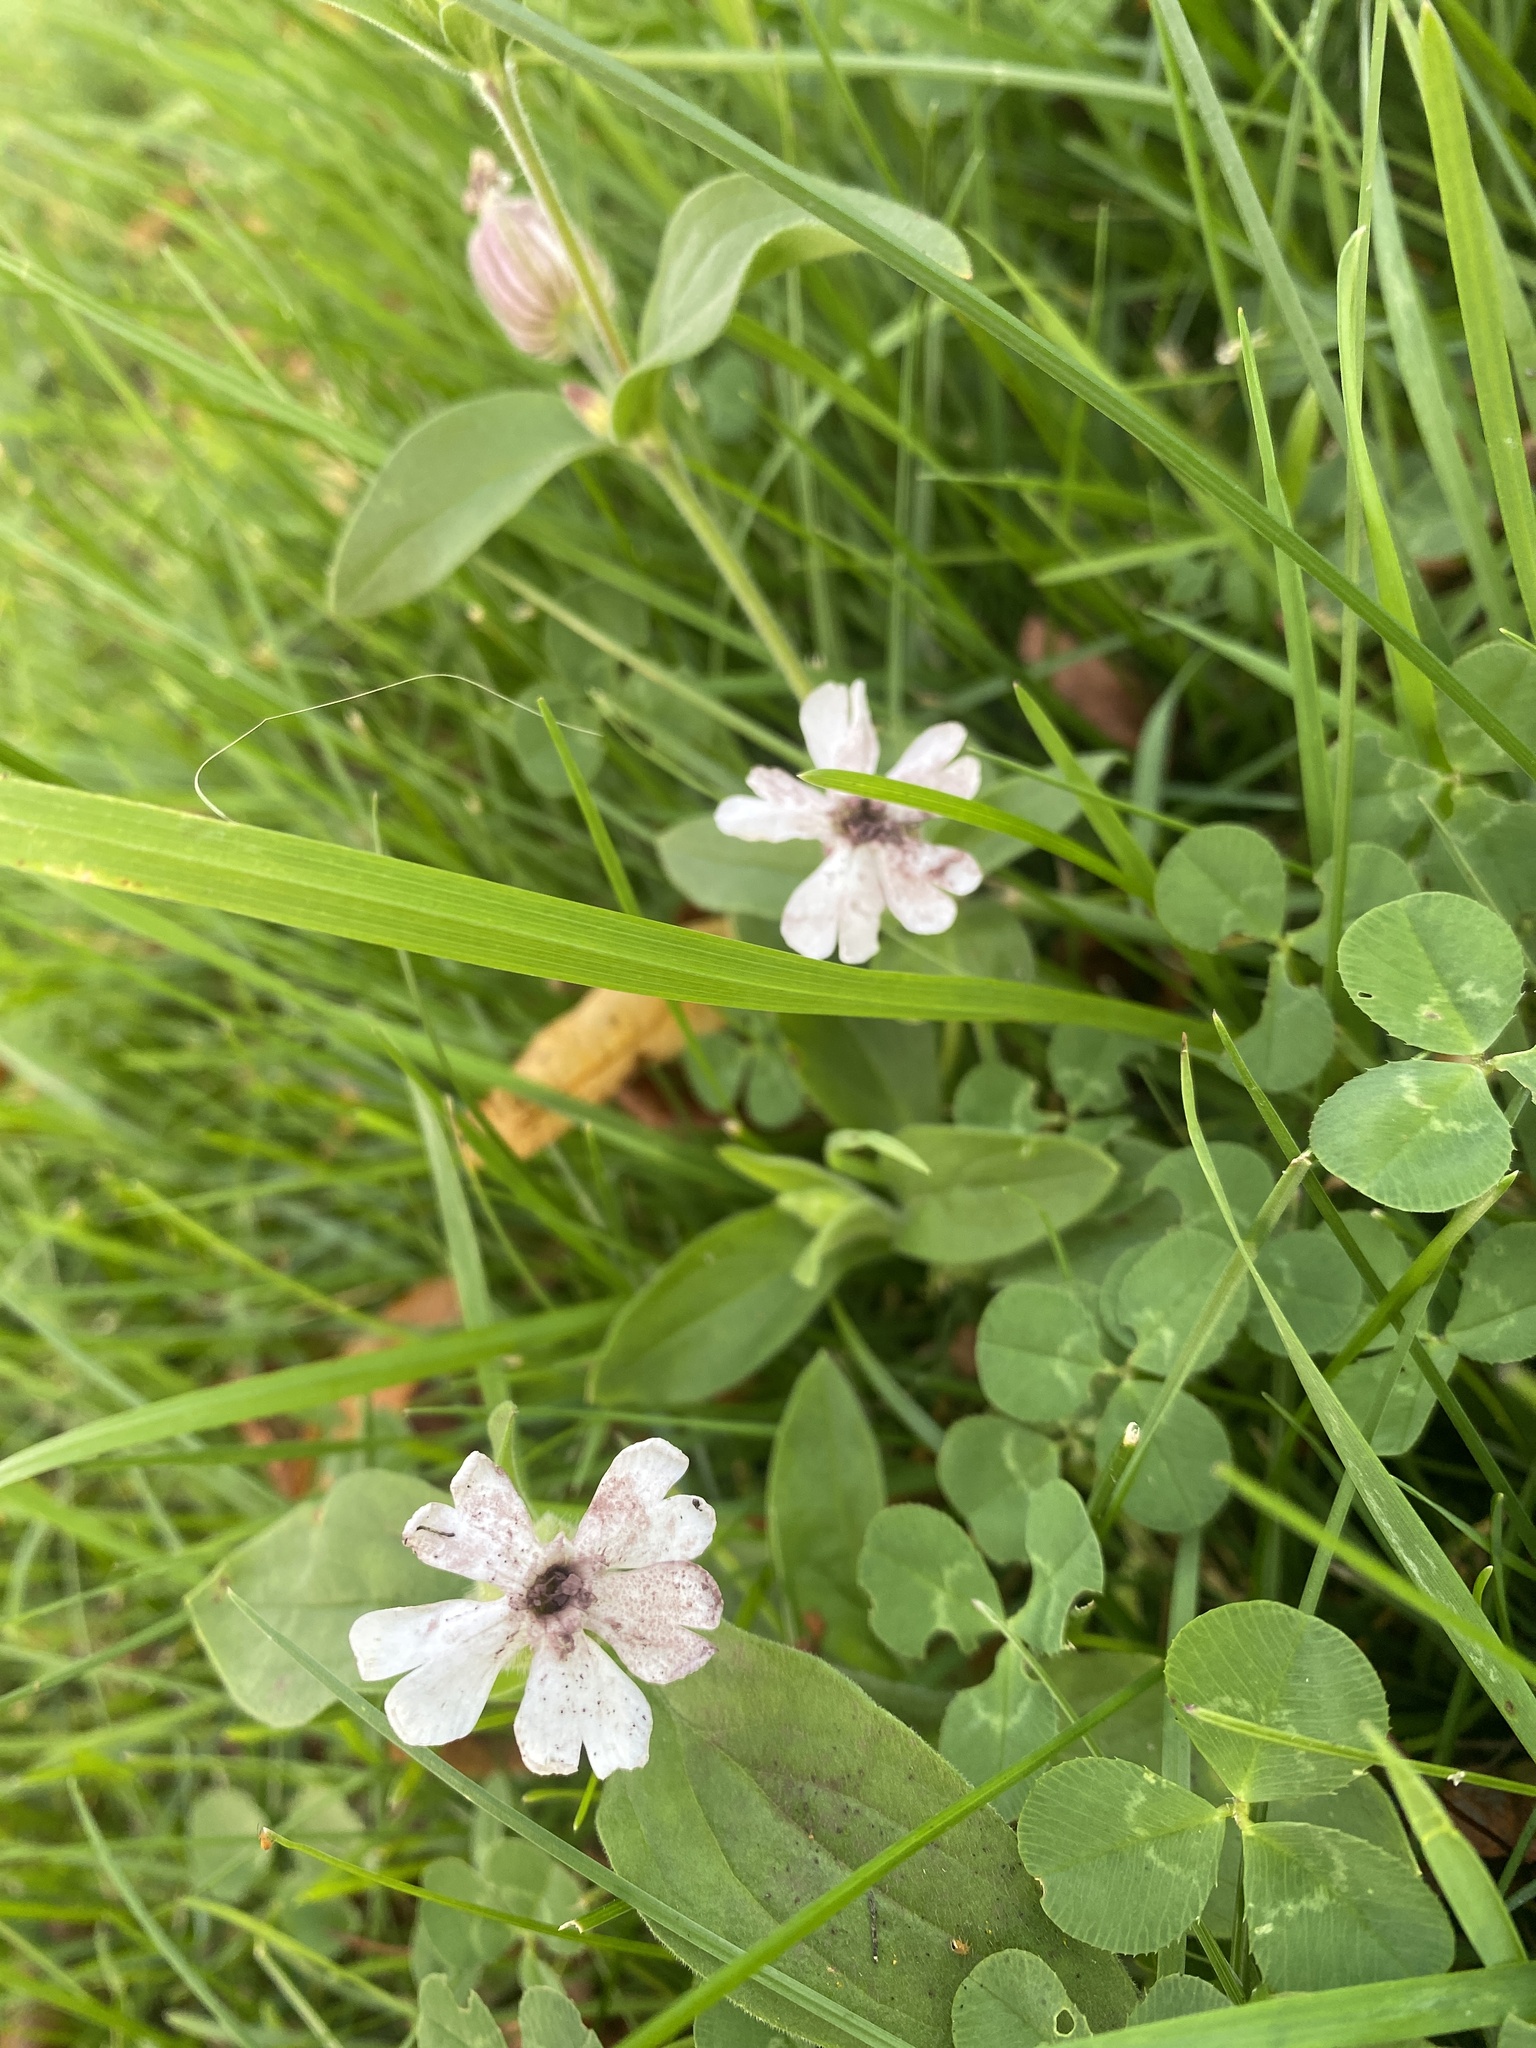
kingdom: Fungi
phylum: Basidiomycota
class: Microbotryomycetes
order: Microbotryales
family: Microbotryaceae
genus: Microbotryum
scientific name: Microbotryum lychnidis-dioicae
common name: Campion anther smut
